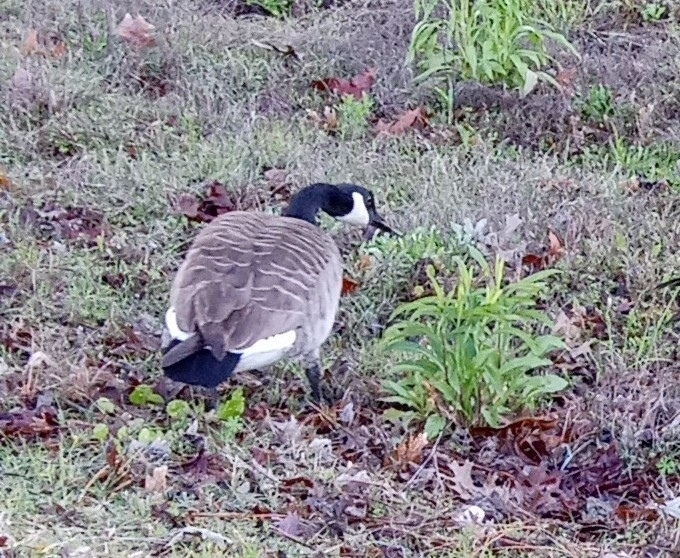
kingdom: Animalia
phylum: Chordata
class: Aves
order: Anseriformes
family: Anatidae
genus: Branta
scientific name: Branta canadensis
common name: Canada goose
